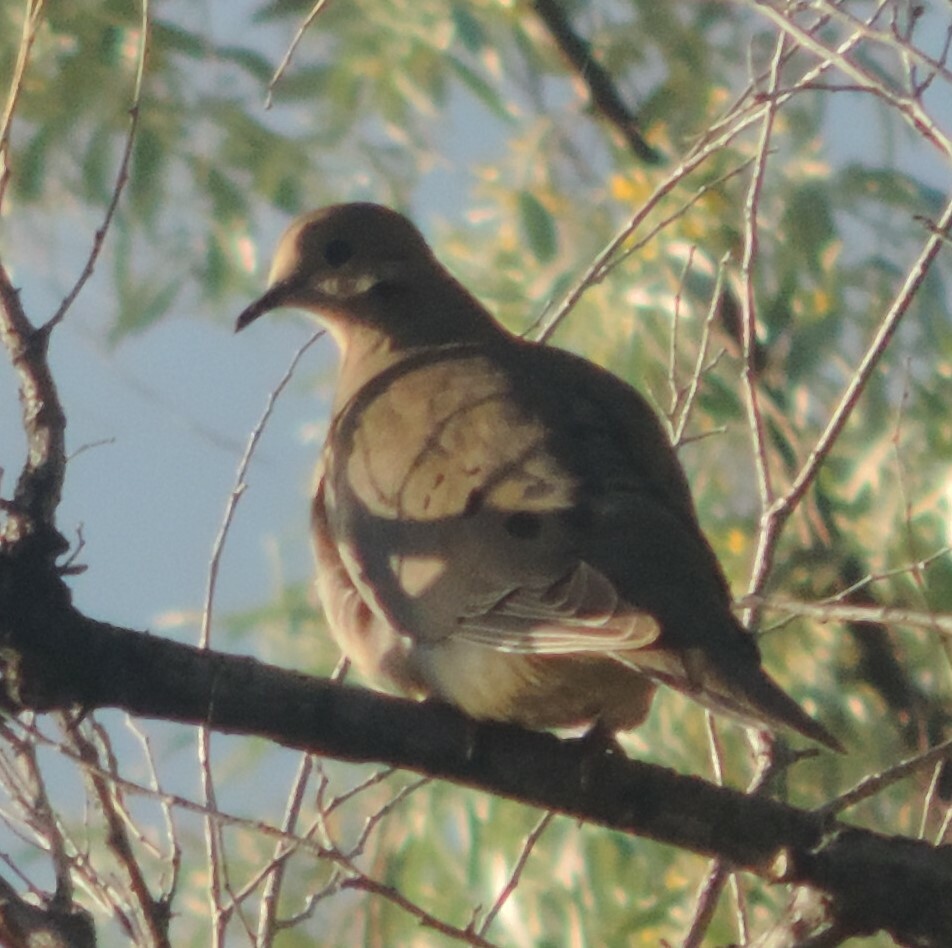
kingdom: Animalia
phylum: Chordata
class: Aves
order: Columbiformes
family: Columbidae
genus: Zenaida
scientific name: Zenaida macroura
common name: Mourning dove
